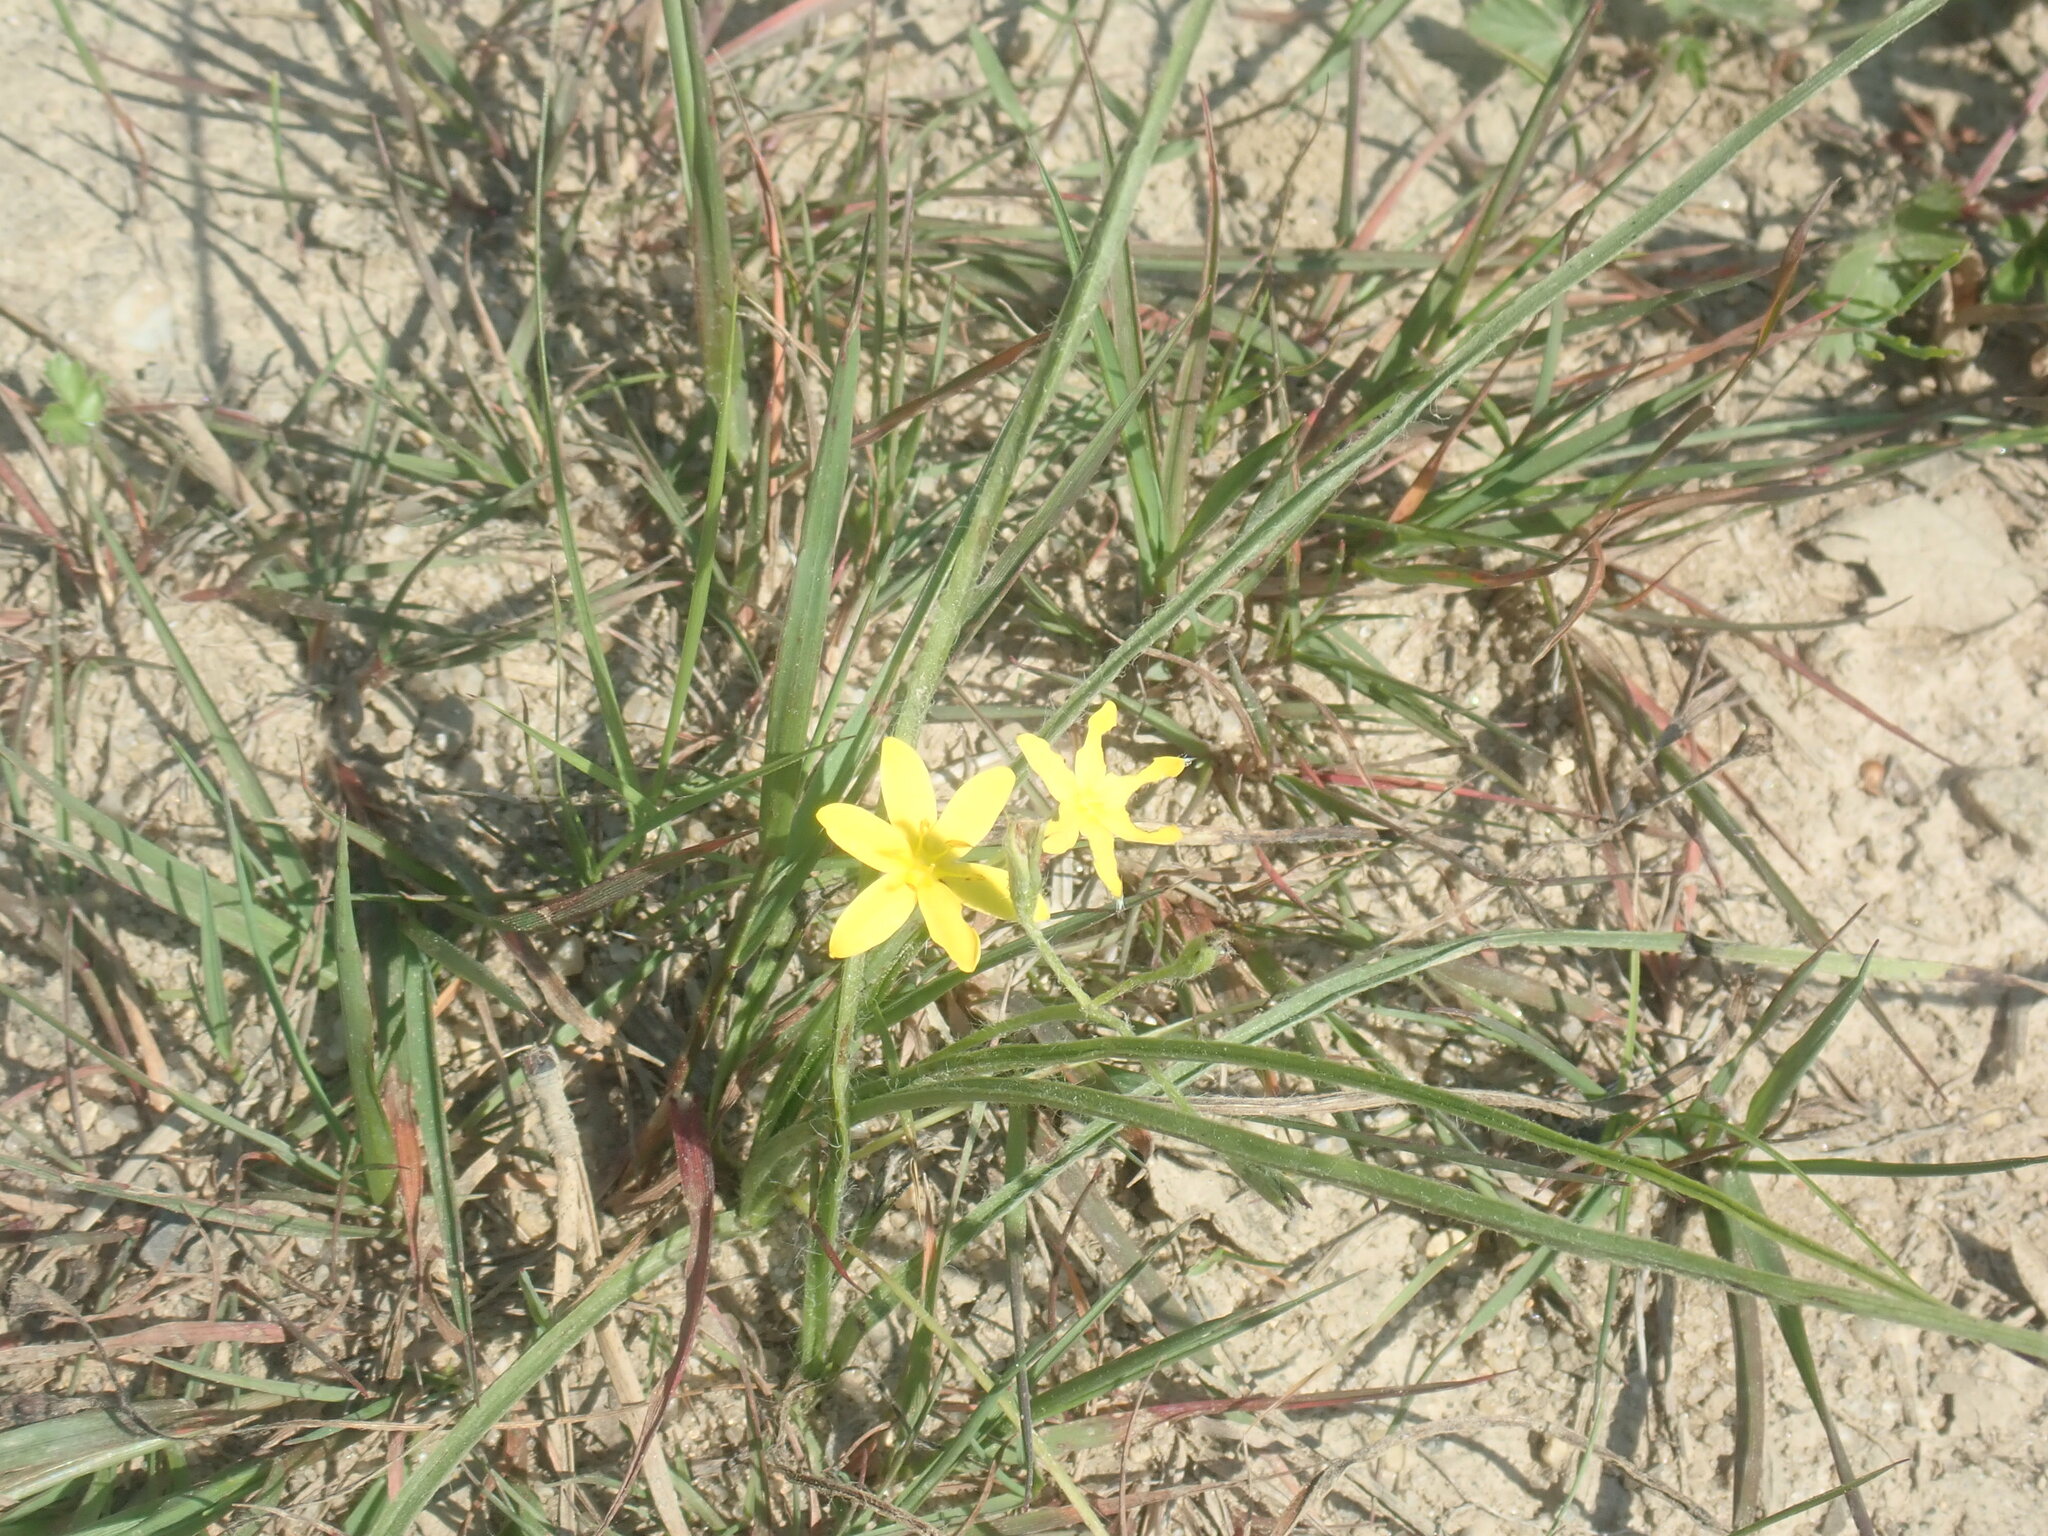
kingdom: Plantae
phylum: Tracheophyta
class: Liliopsida
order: Asparagales
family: Hypoxidaceae
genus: Hypoxis
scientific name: Hypoxis hirsuta
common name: Common goldstar
